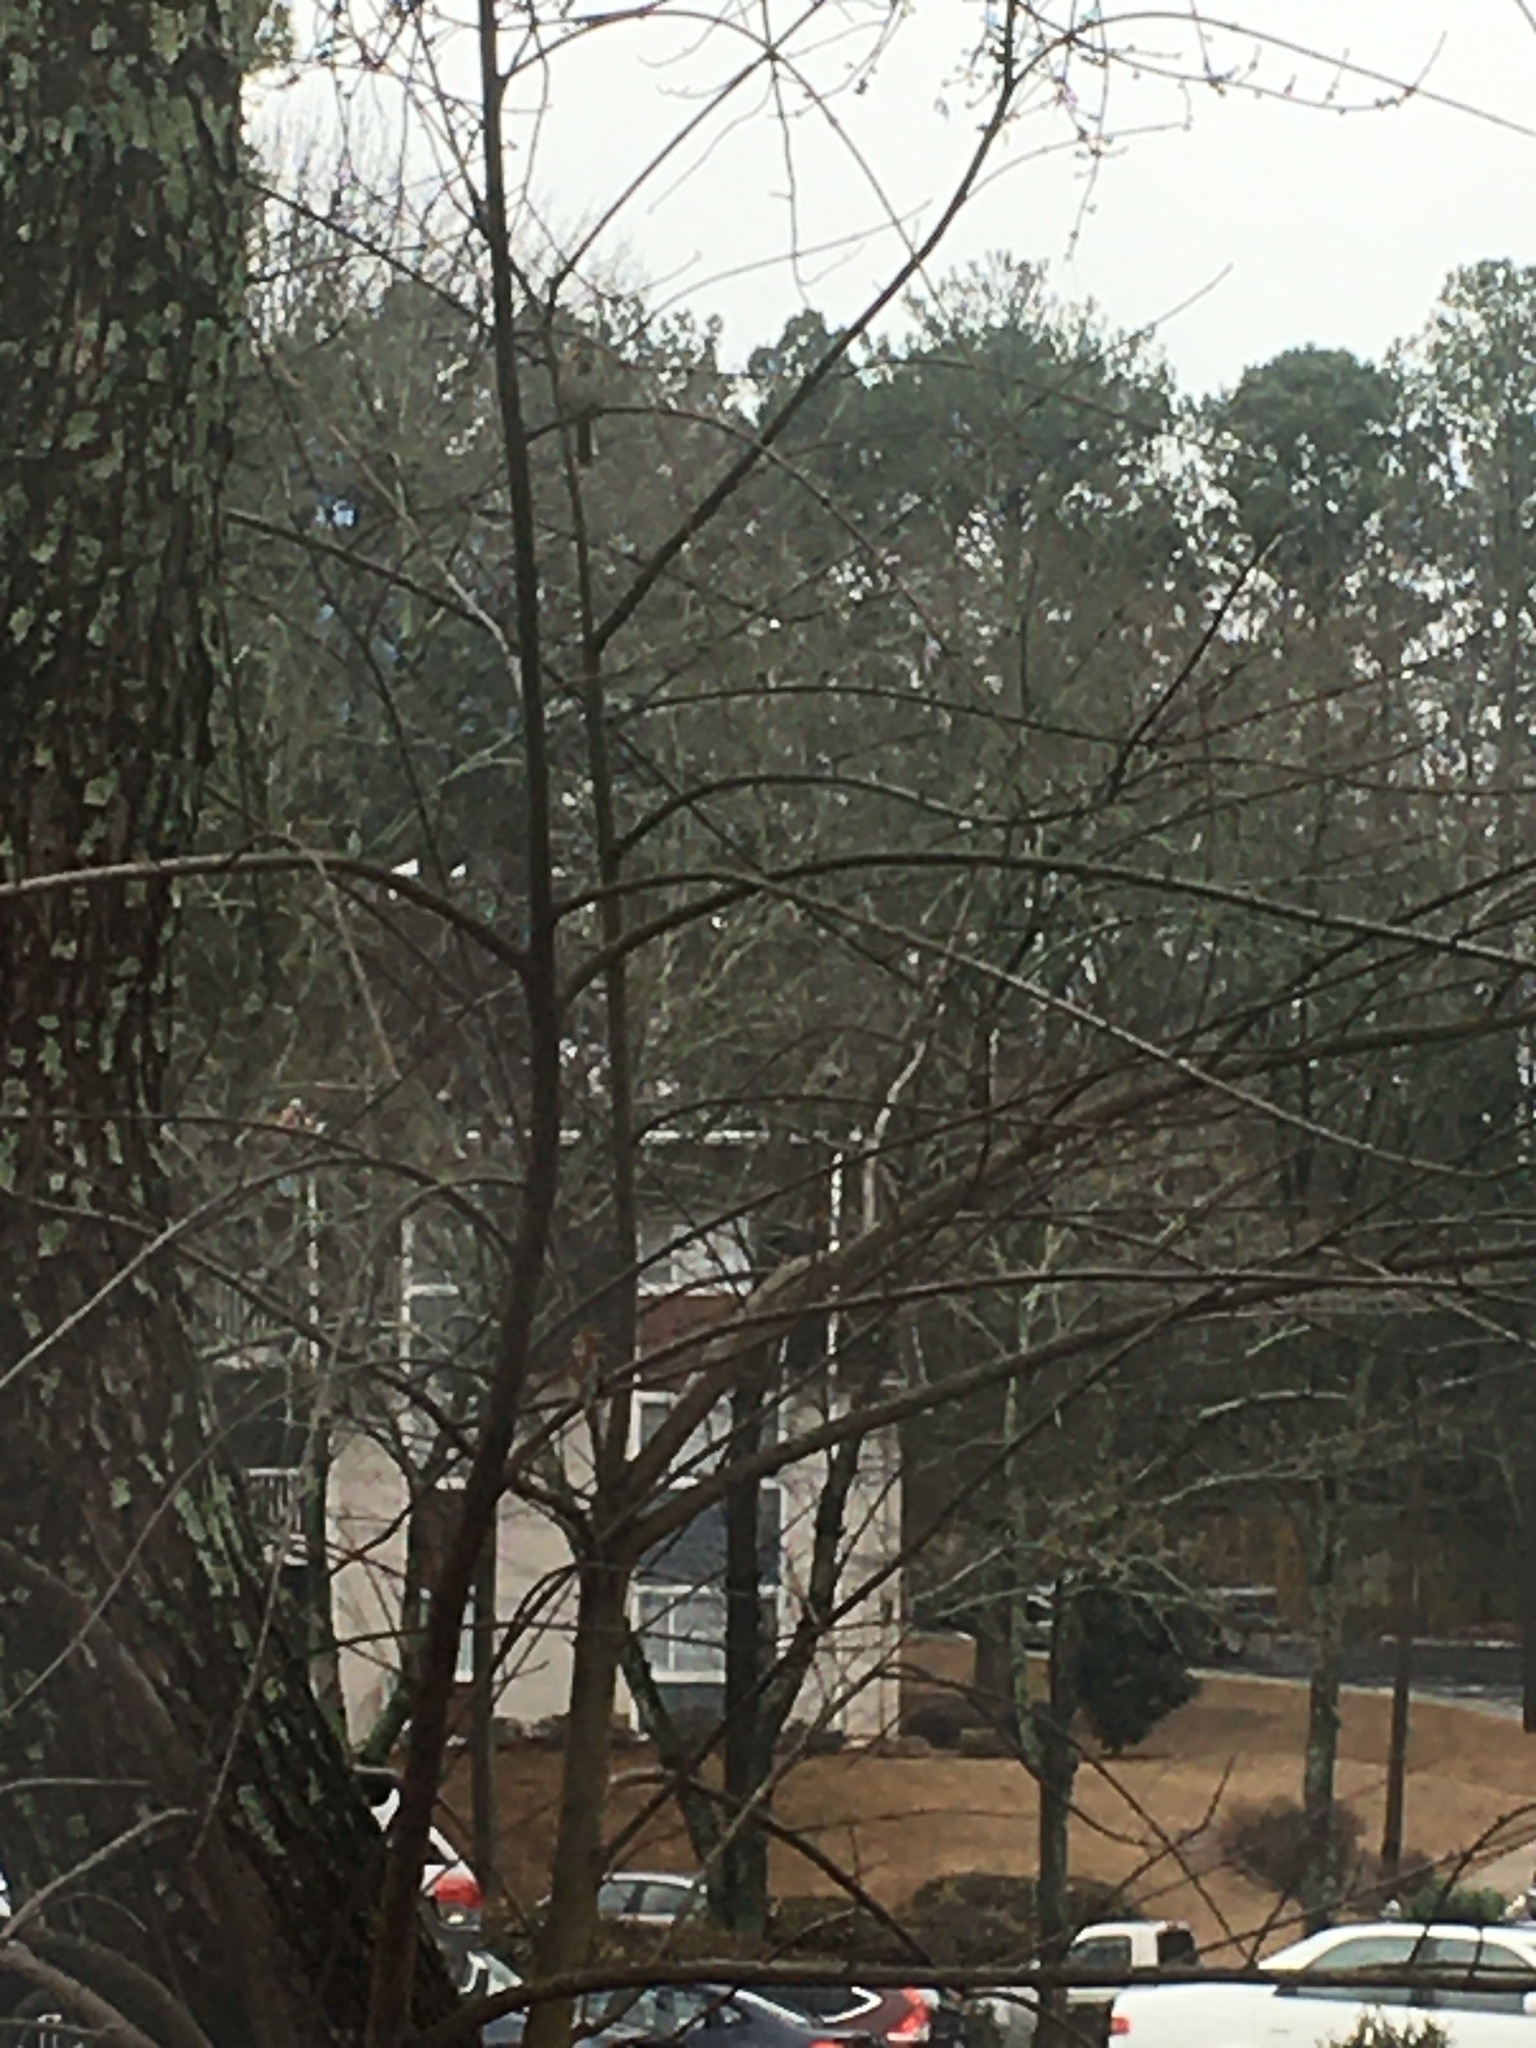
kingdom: Animalia
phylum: Chordata
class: Aves
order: Passeriformes
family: Passerellidae
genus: Melospiza
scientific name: Melospiza melodia
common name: Song sparrow
